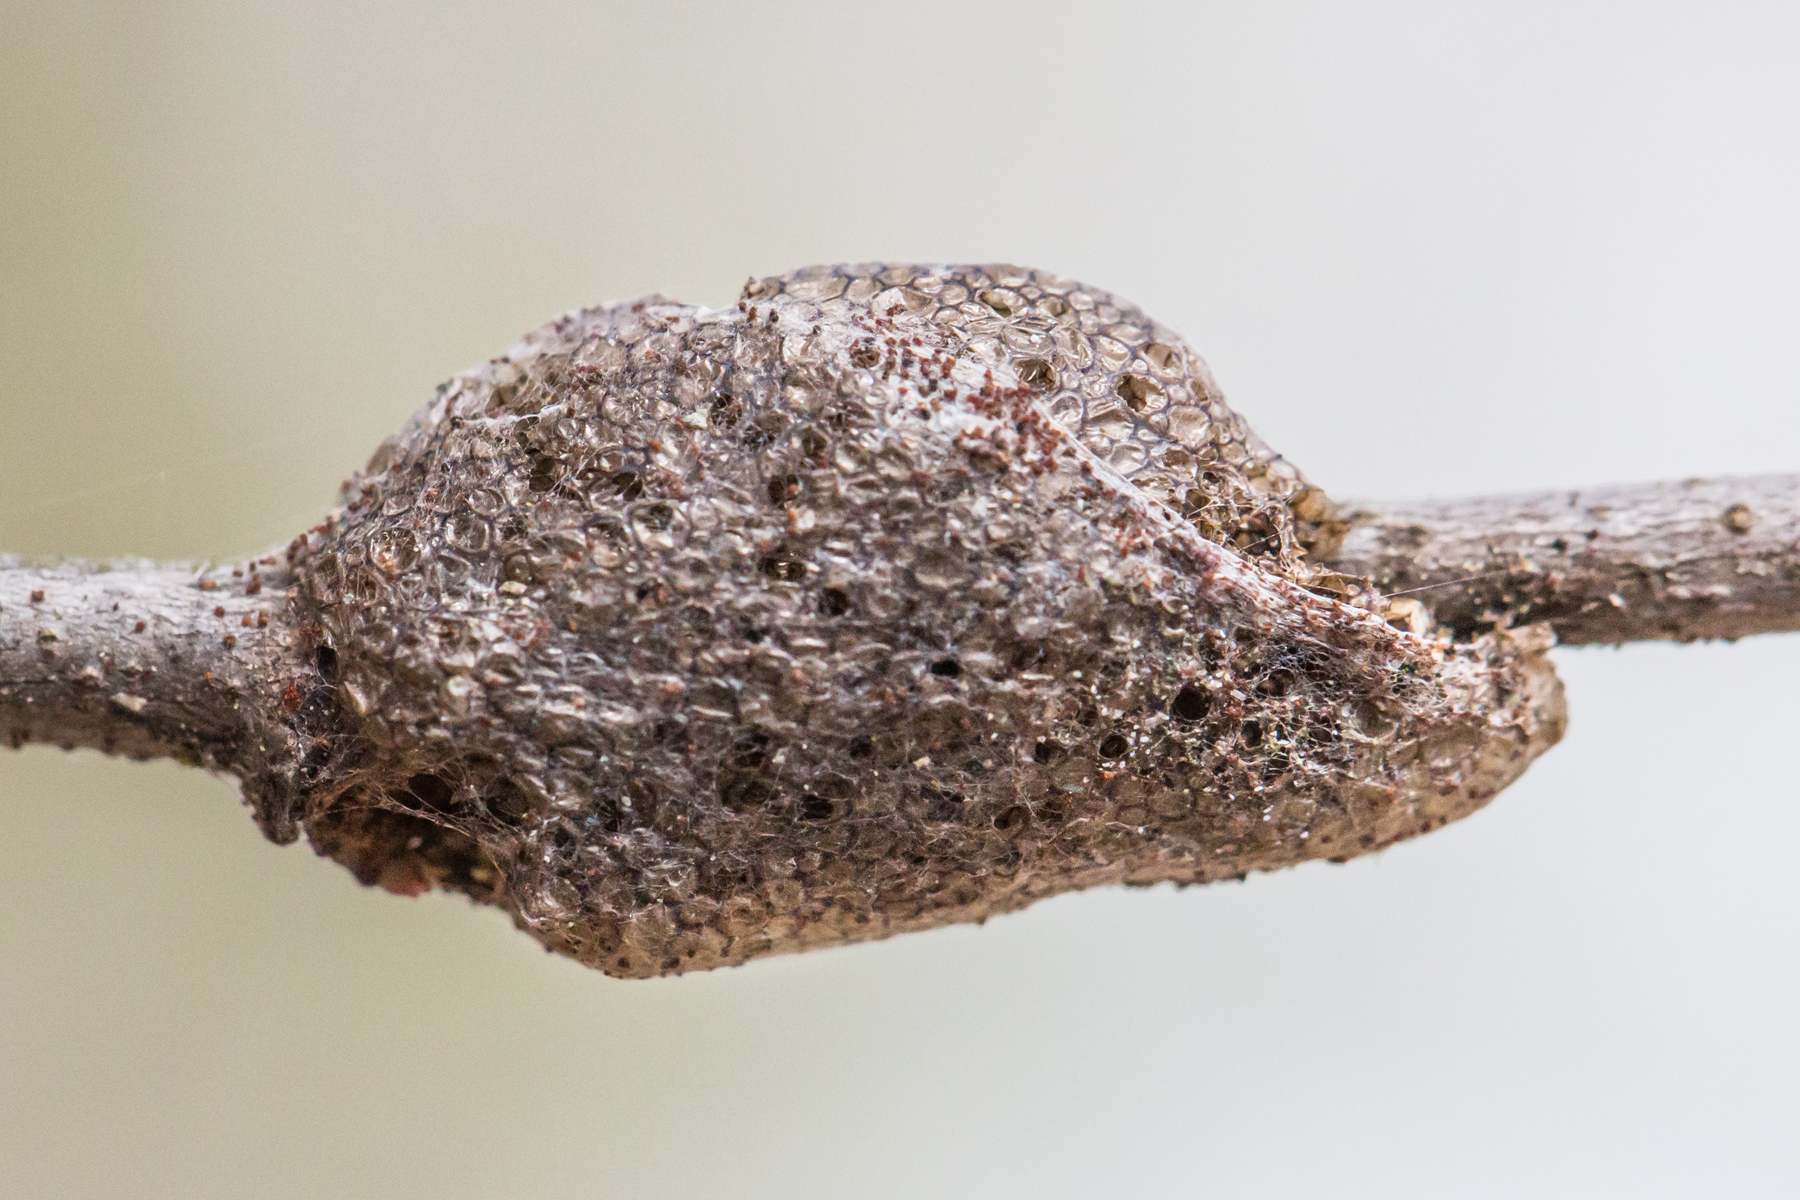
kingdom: Animalia
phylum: Arthropoda
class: Insecta
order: Lepidoptera
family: Lasiocampidae
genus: Malacosoma
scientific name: Malacosoma americana
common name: Eastern tent caterpillar moth
